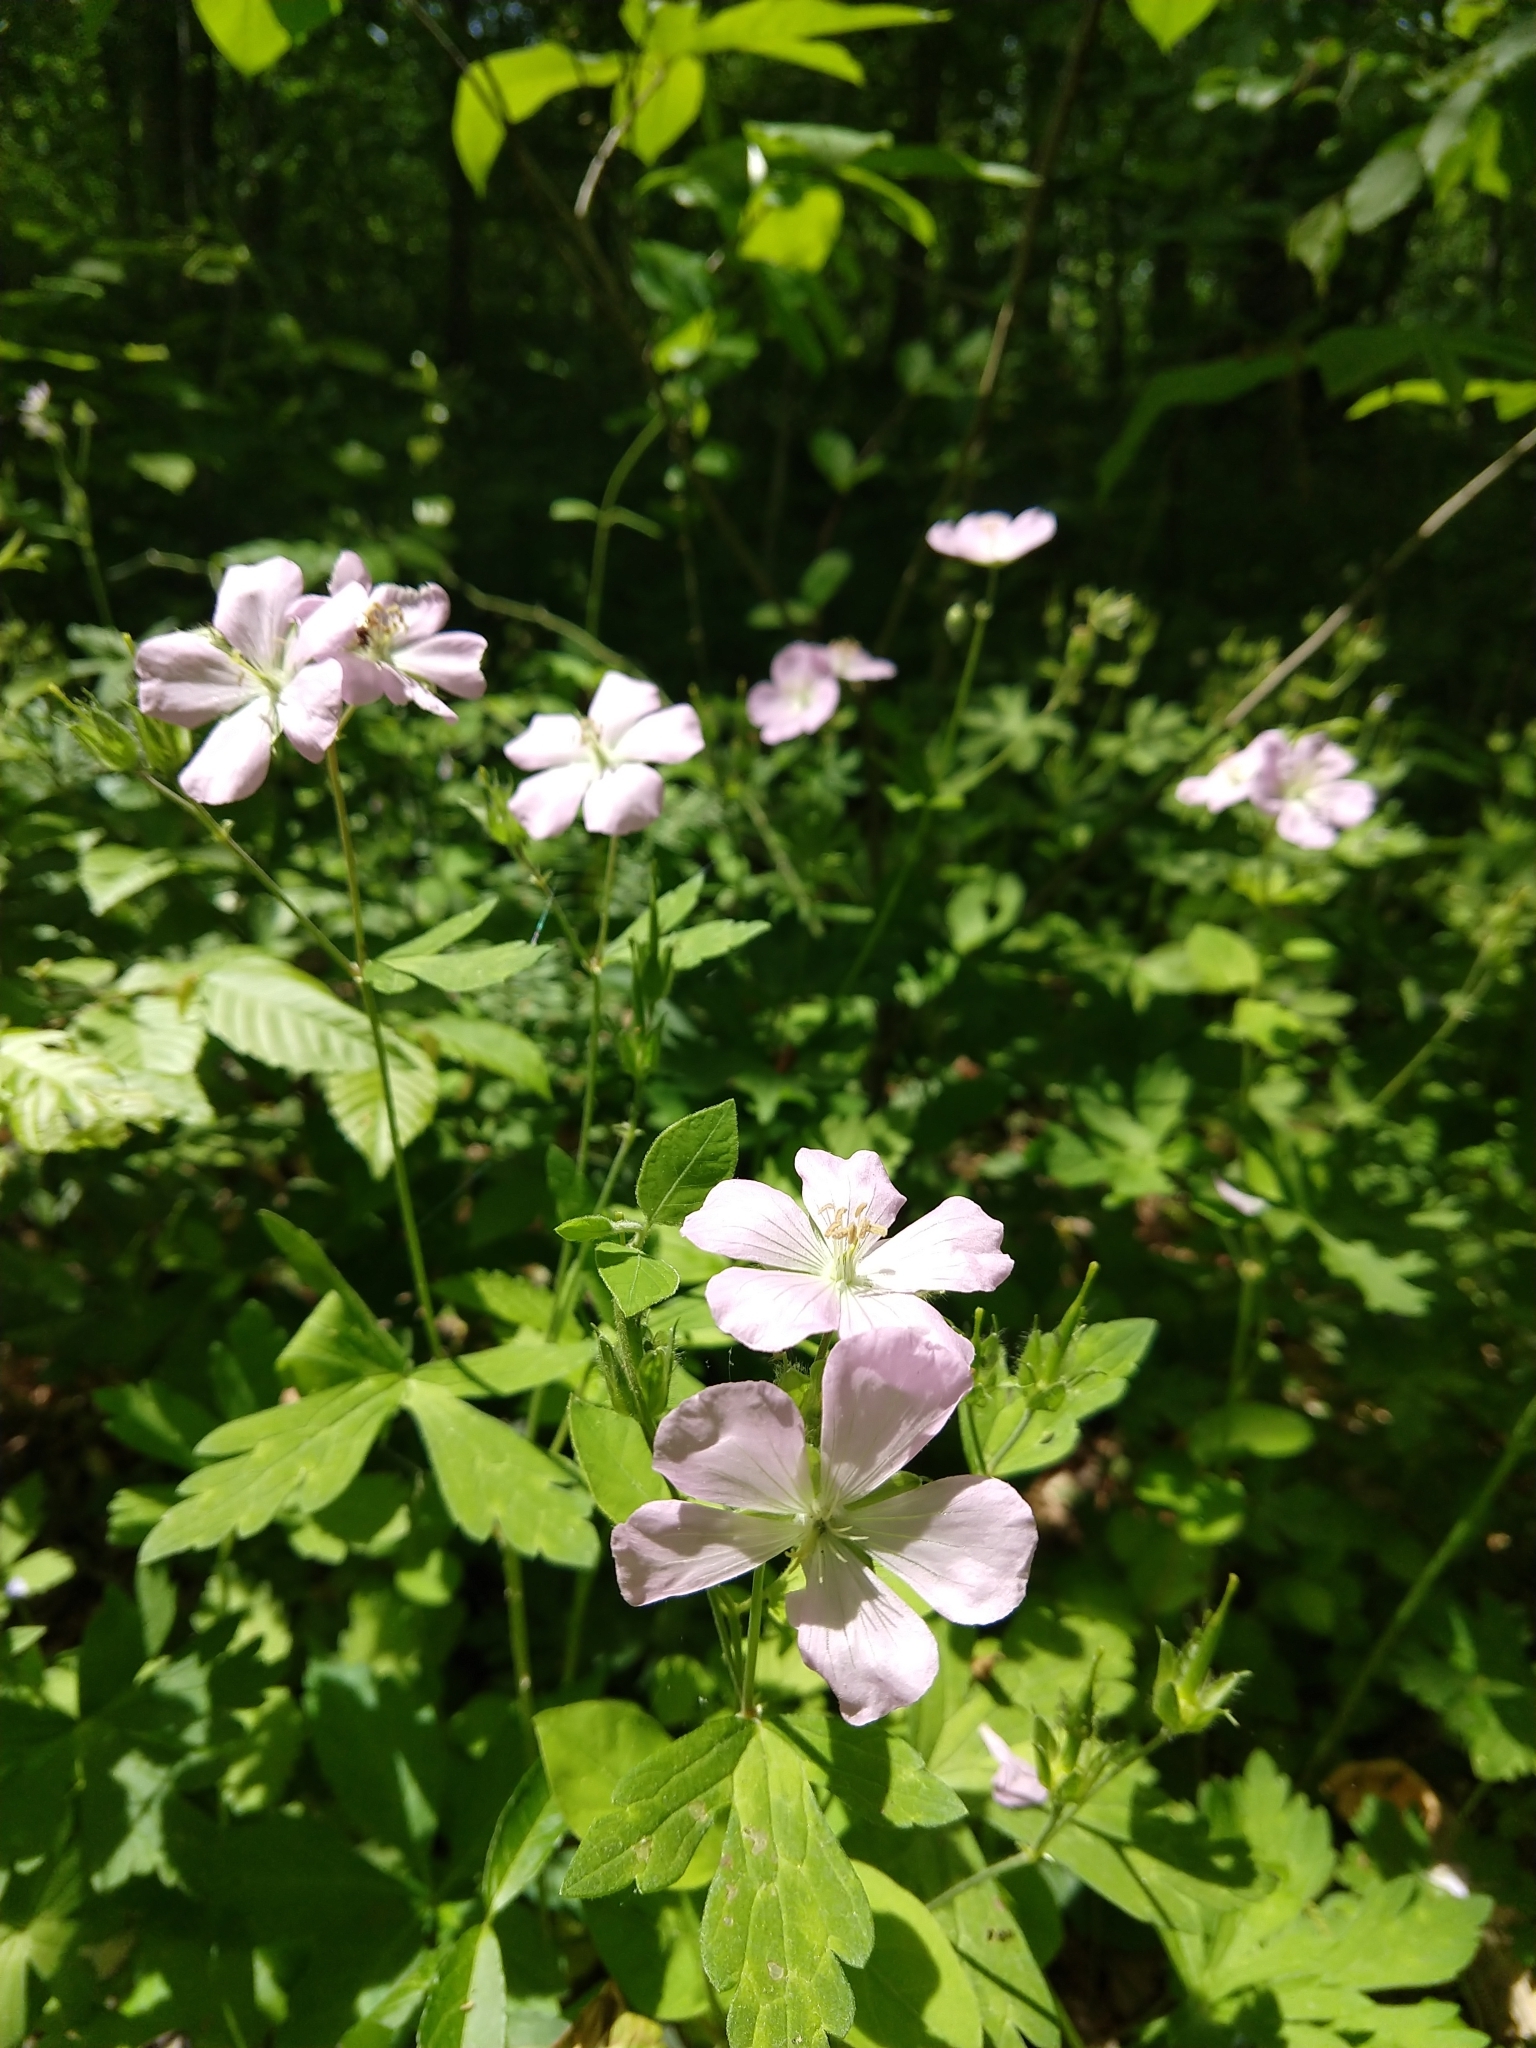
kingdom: Plantae
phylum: Tracheophyta
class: Magnoliopsida
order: Geraniales
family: Geraniaceae
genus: Geranium
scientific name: Geranium maculatum
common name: Spotted geranium
